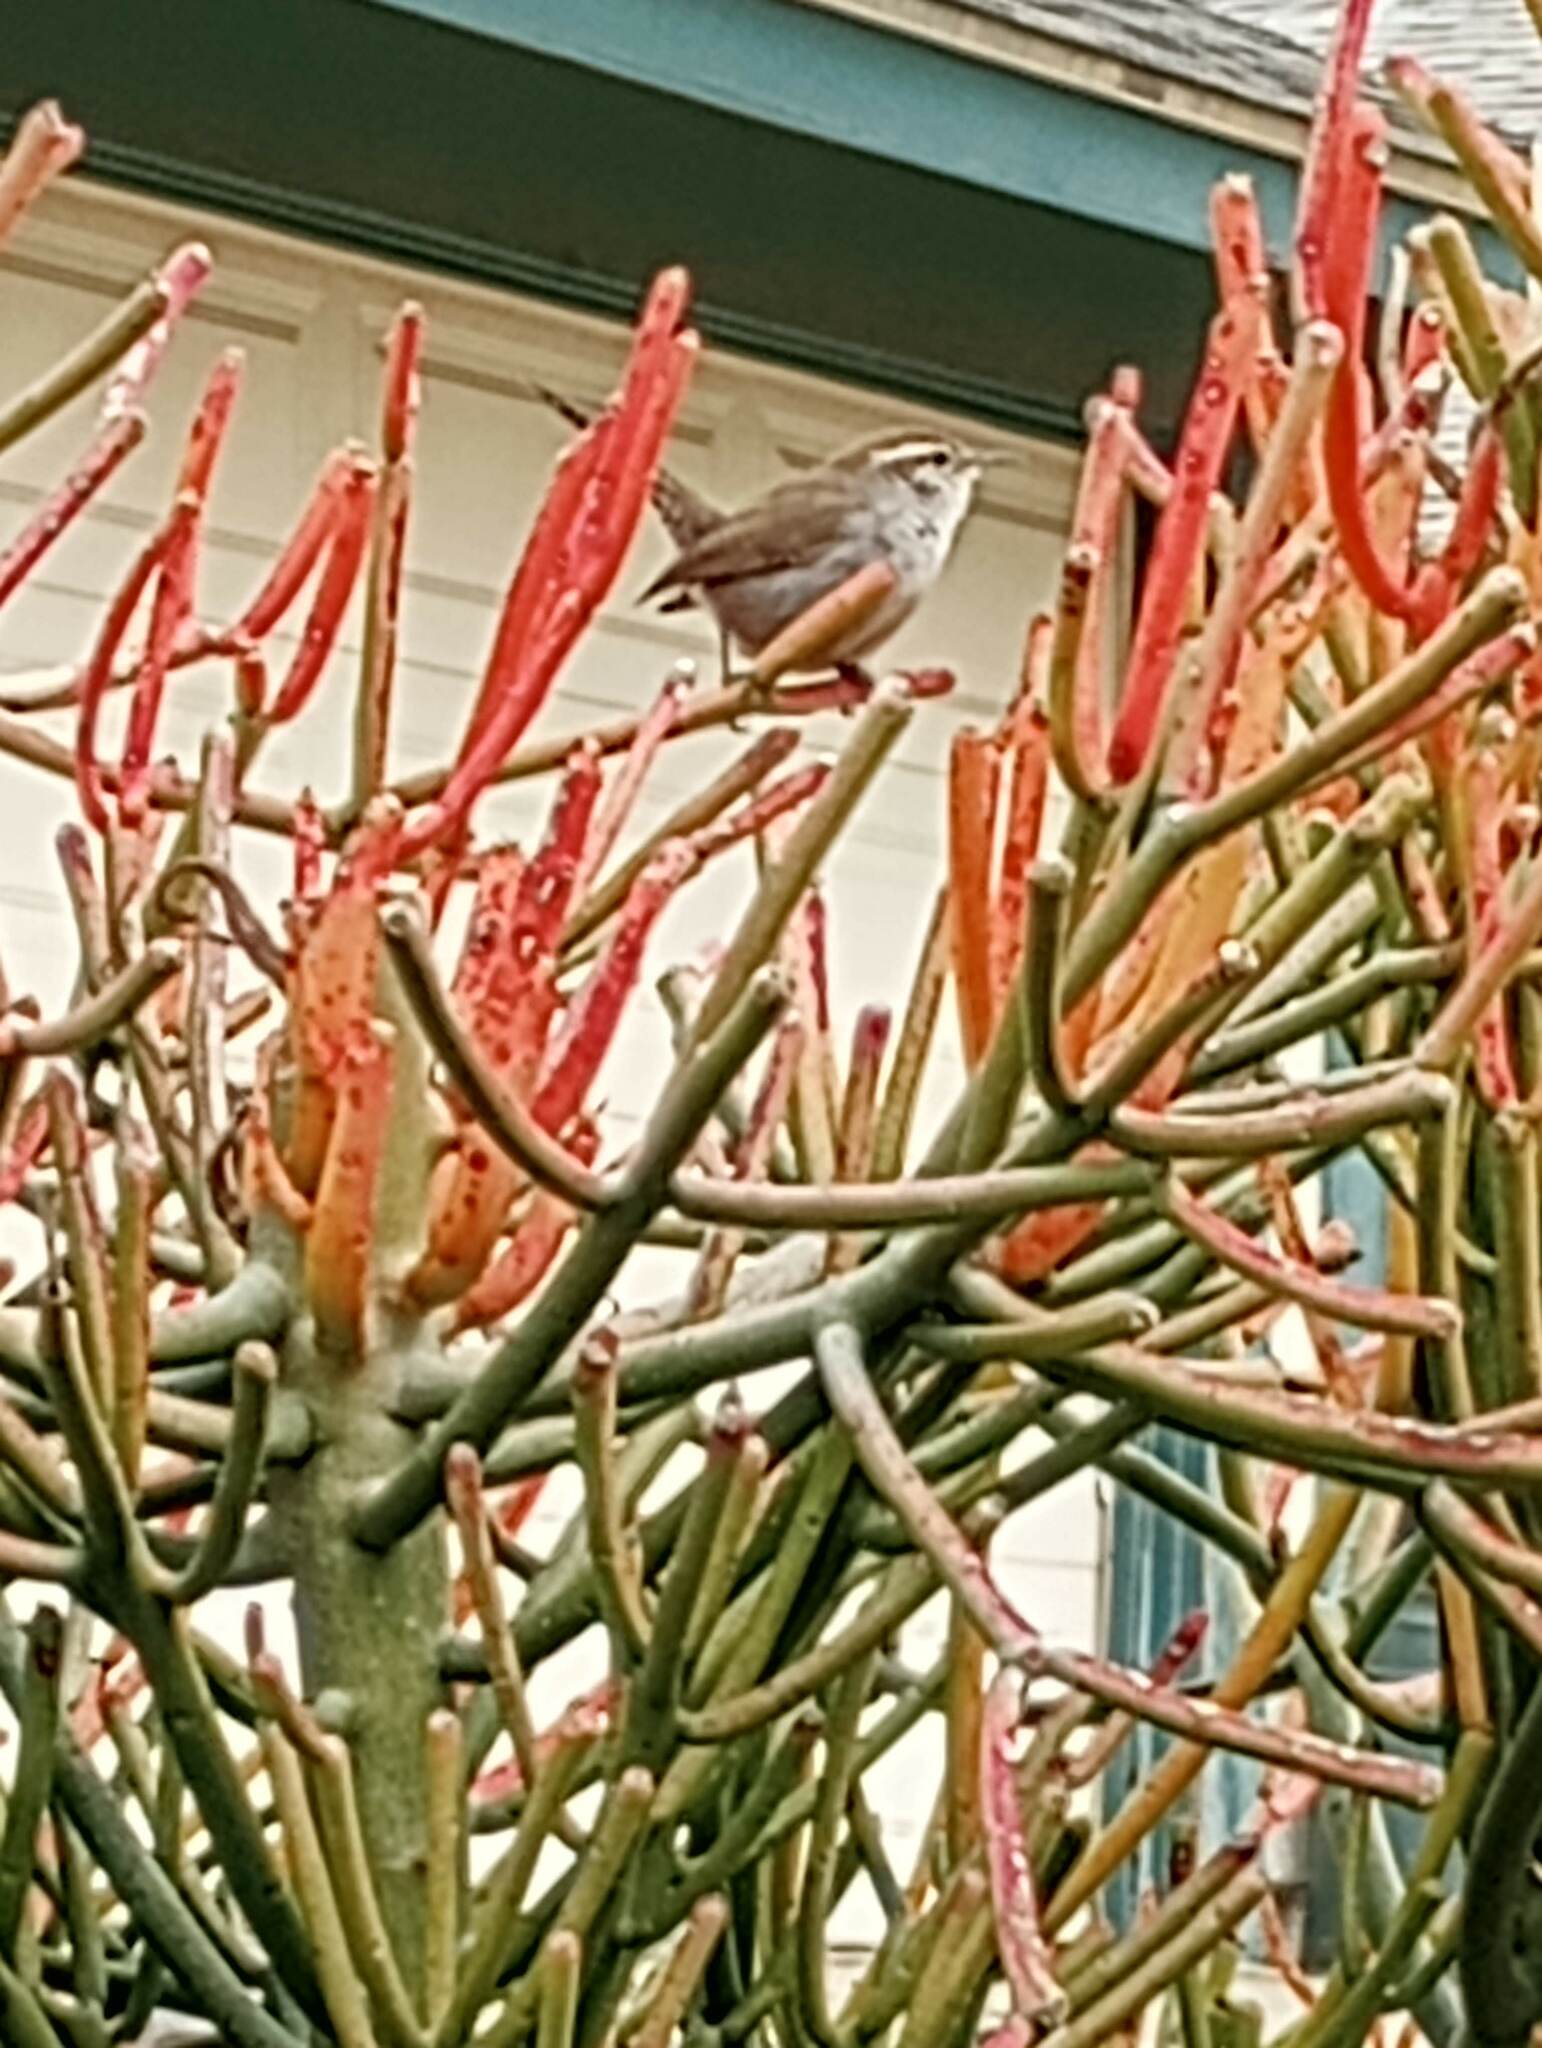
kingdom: Animalia
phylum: Chordata
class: Aves
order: Passeriformes
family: Troglodytidae
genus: Thryomanes
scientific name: Thryomanes bewickii
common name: Bewick's wren
